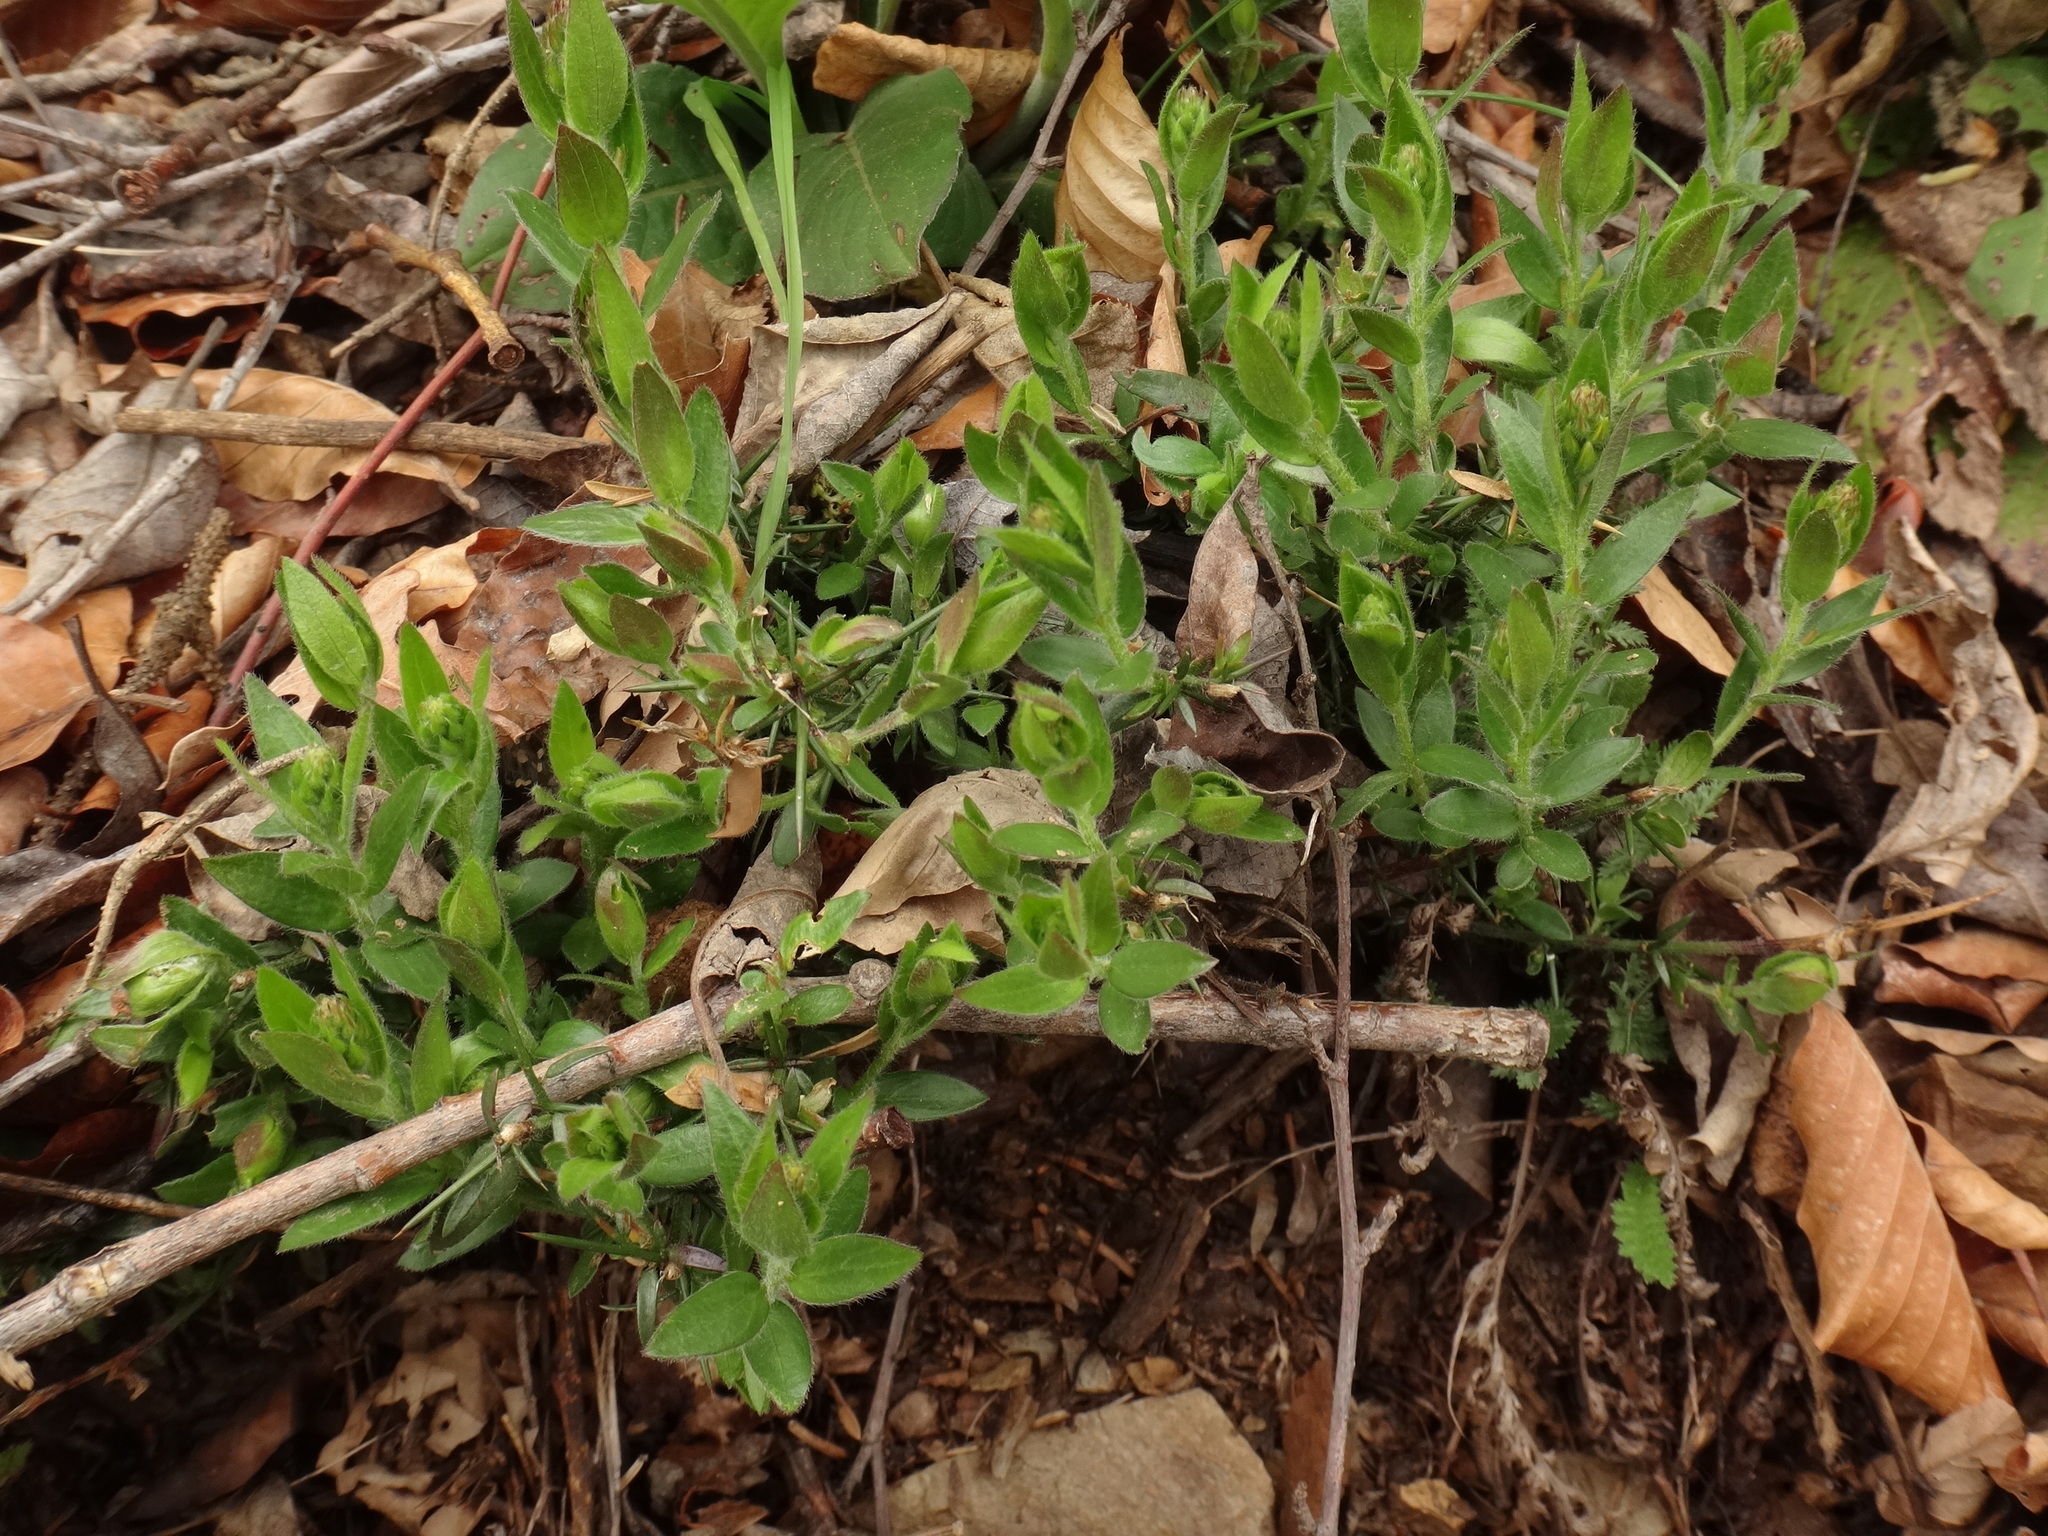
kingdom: Plantae
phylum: Tracheophyta
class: Magnoliopsida
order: Fabales
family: Fabaceae
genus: Genista
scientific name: Genista germanica
